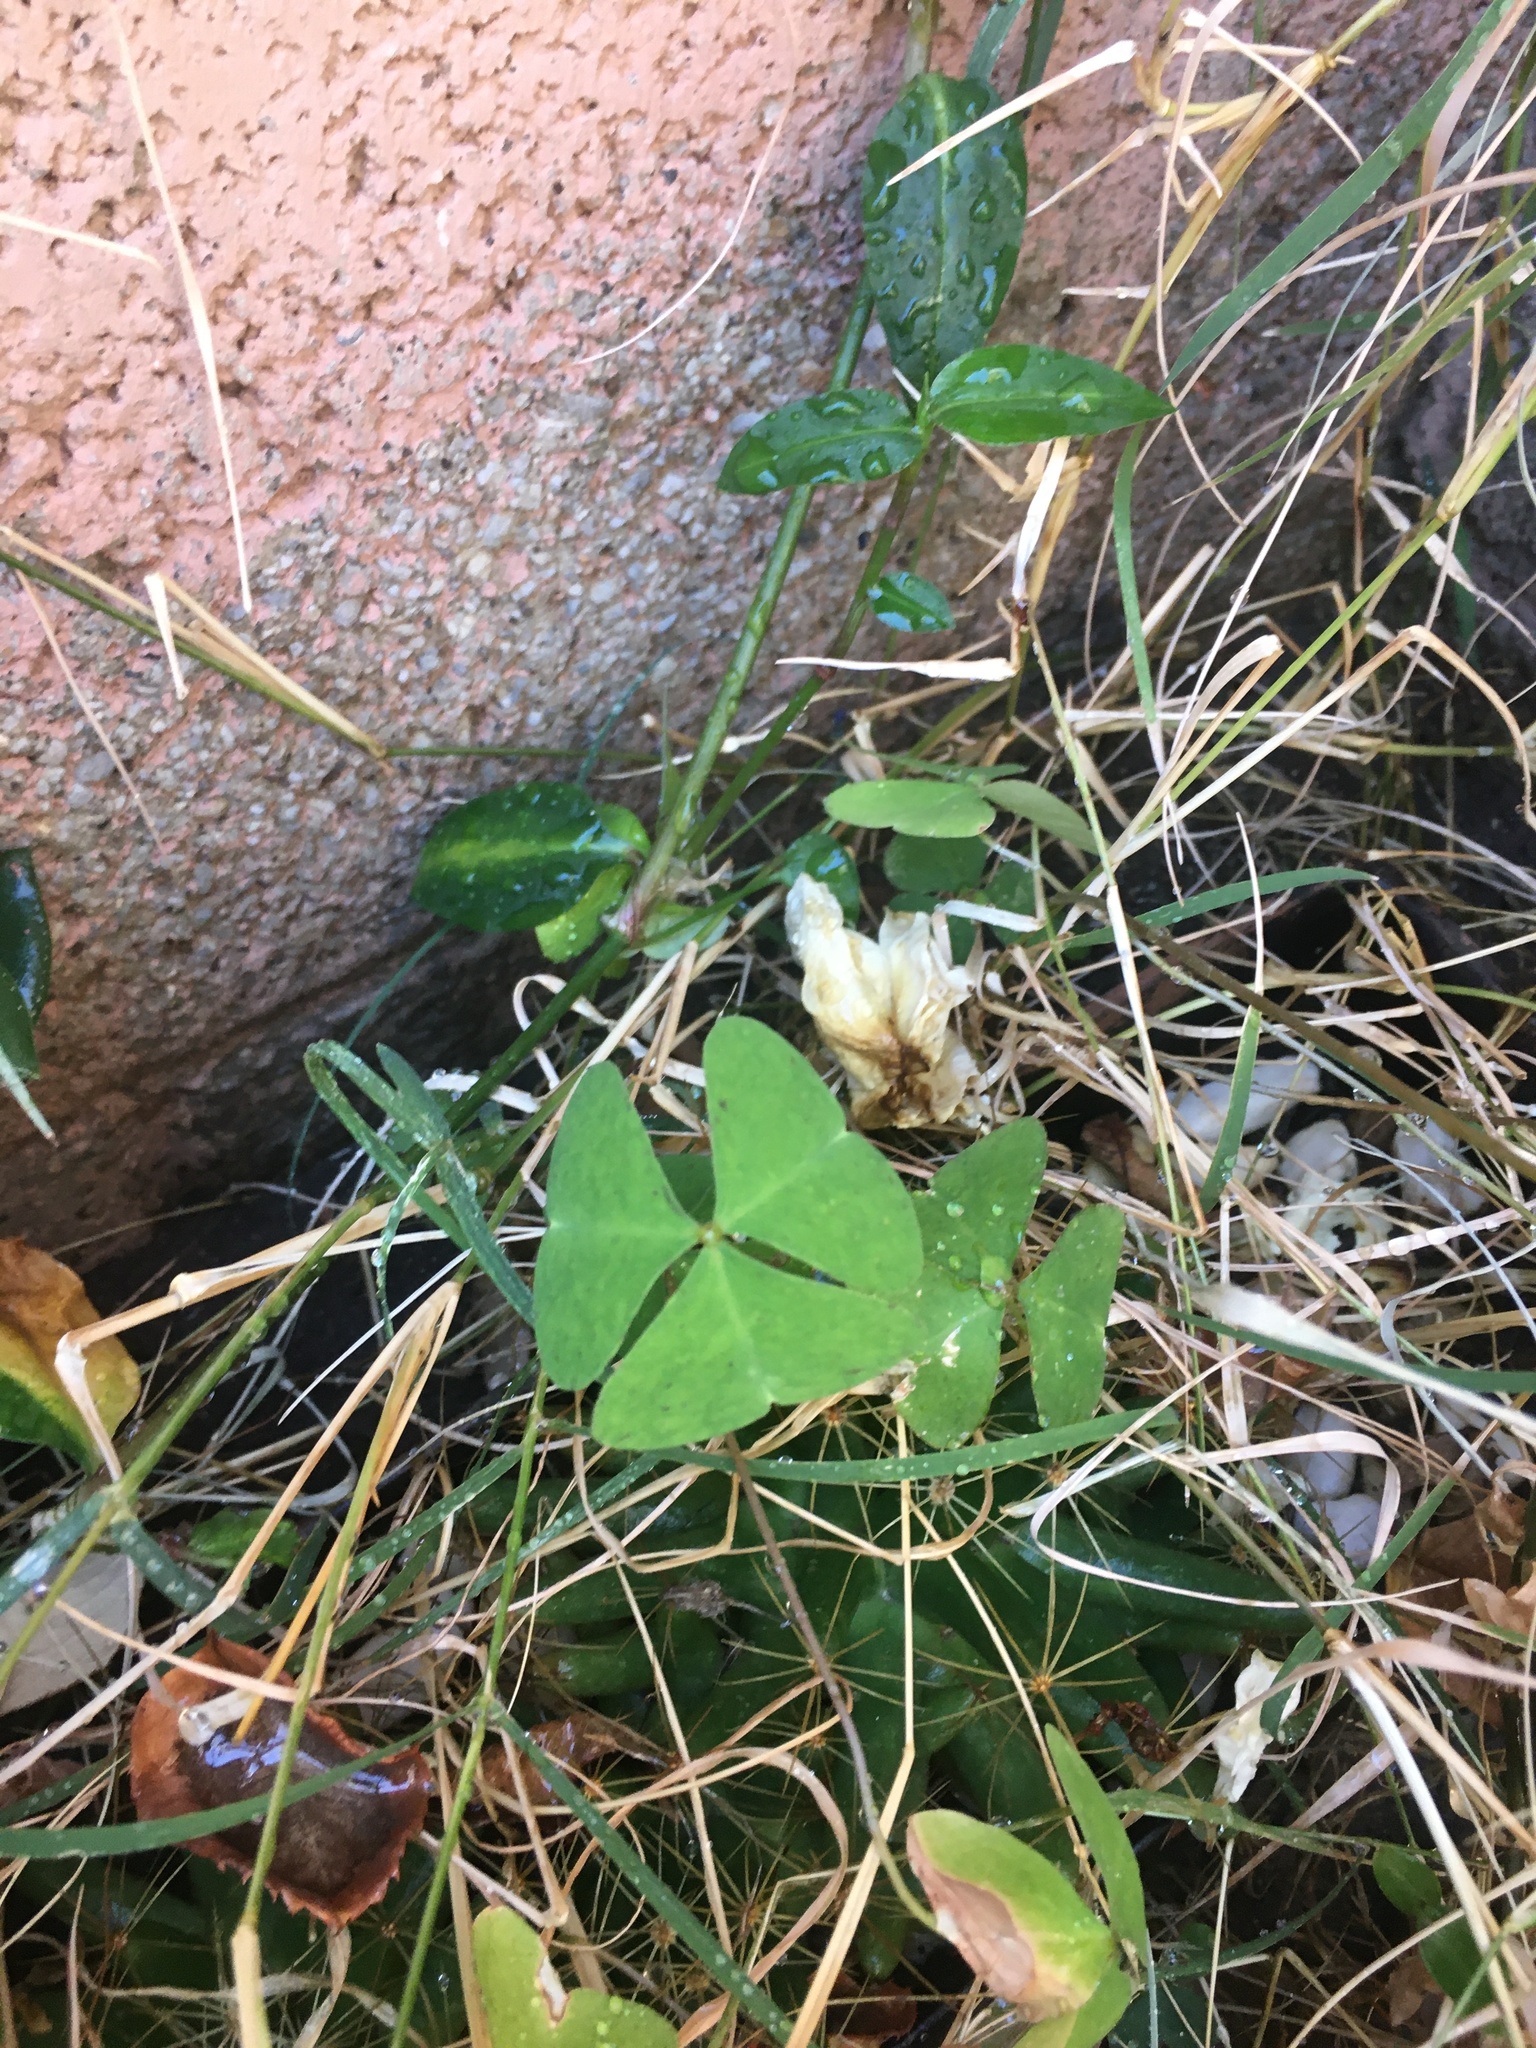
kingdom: Plantae
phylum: Tracheophyta
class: Magnoliopsida
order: Oxalidales
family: Oxalidaceae
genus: Oxalis
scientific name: Oxalis latifolia
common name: Garden pink-sorrel
